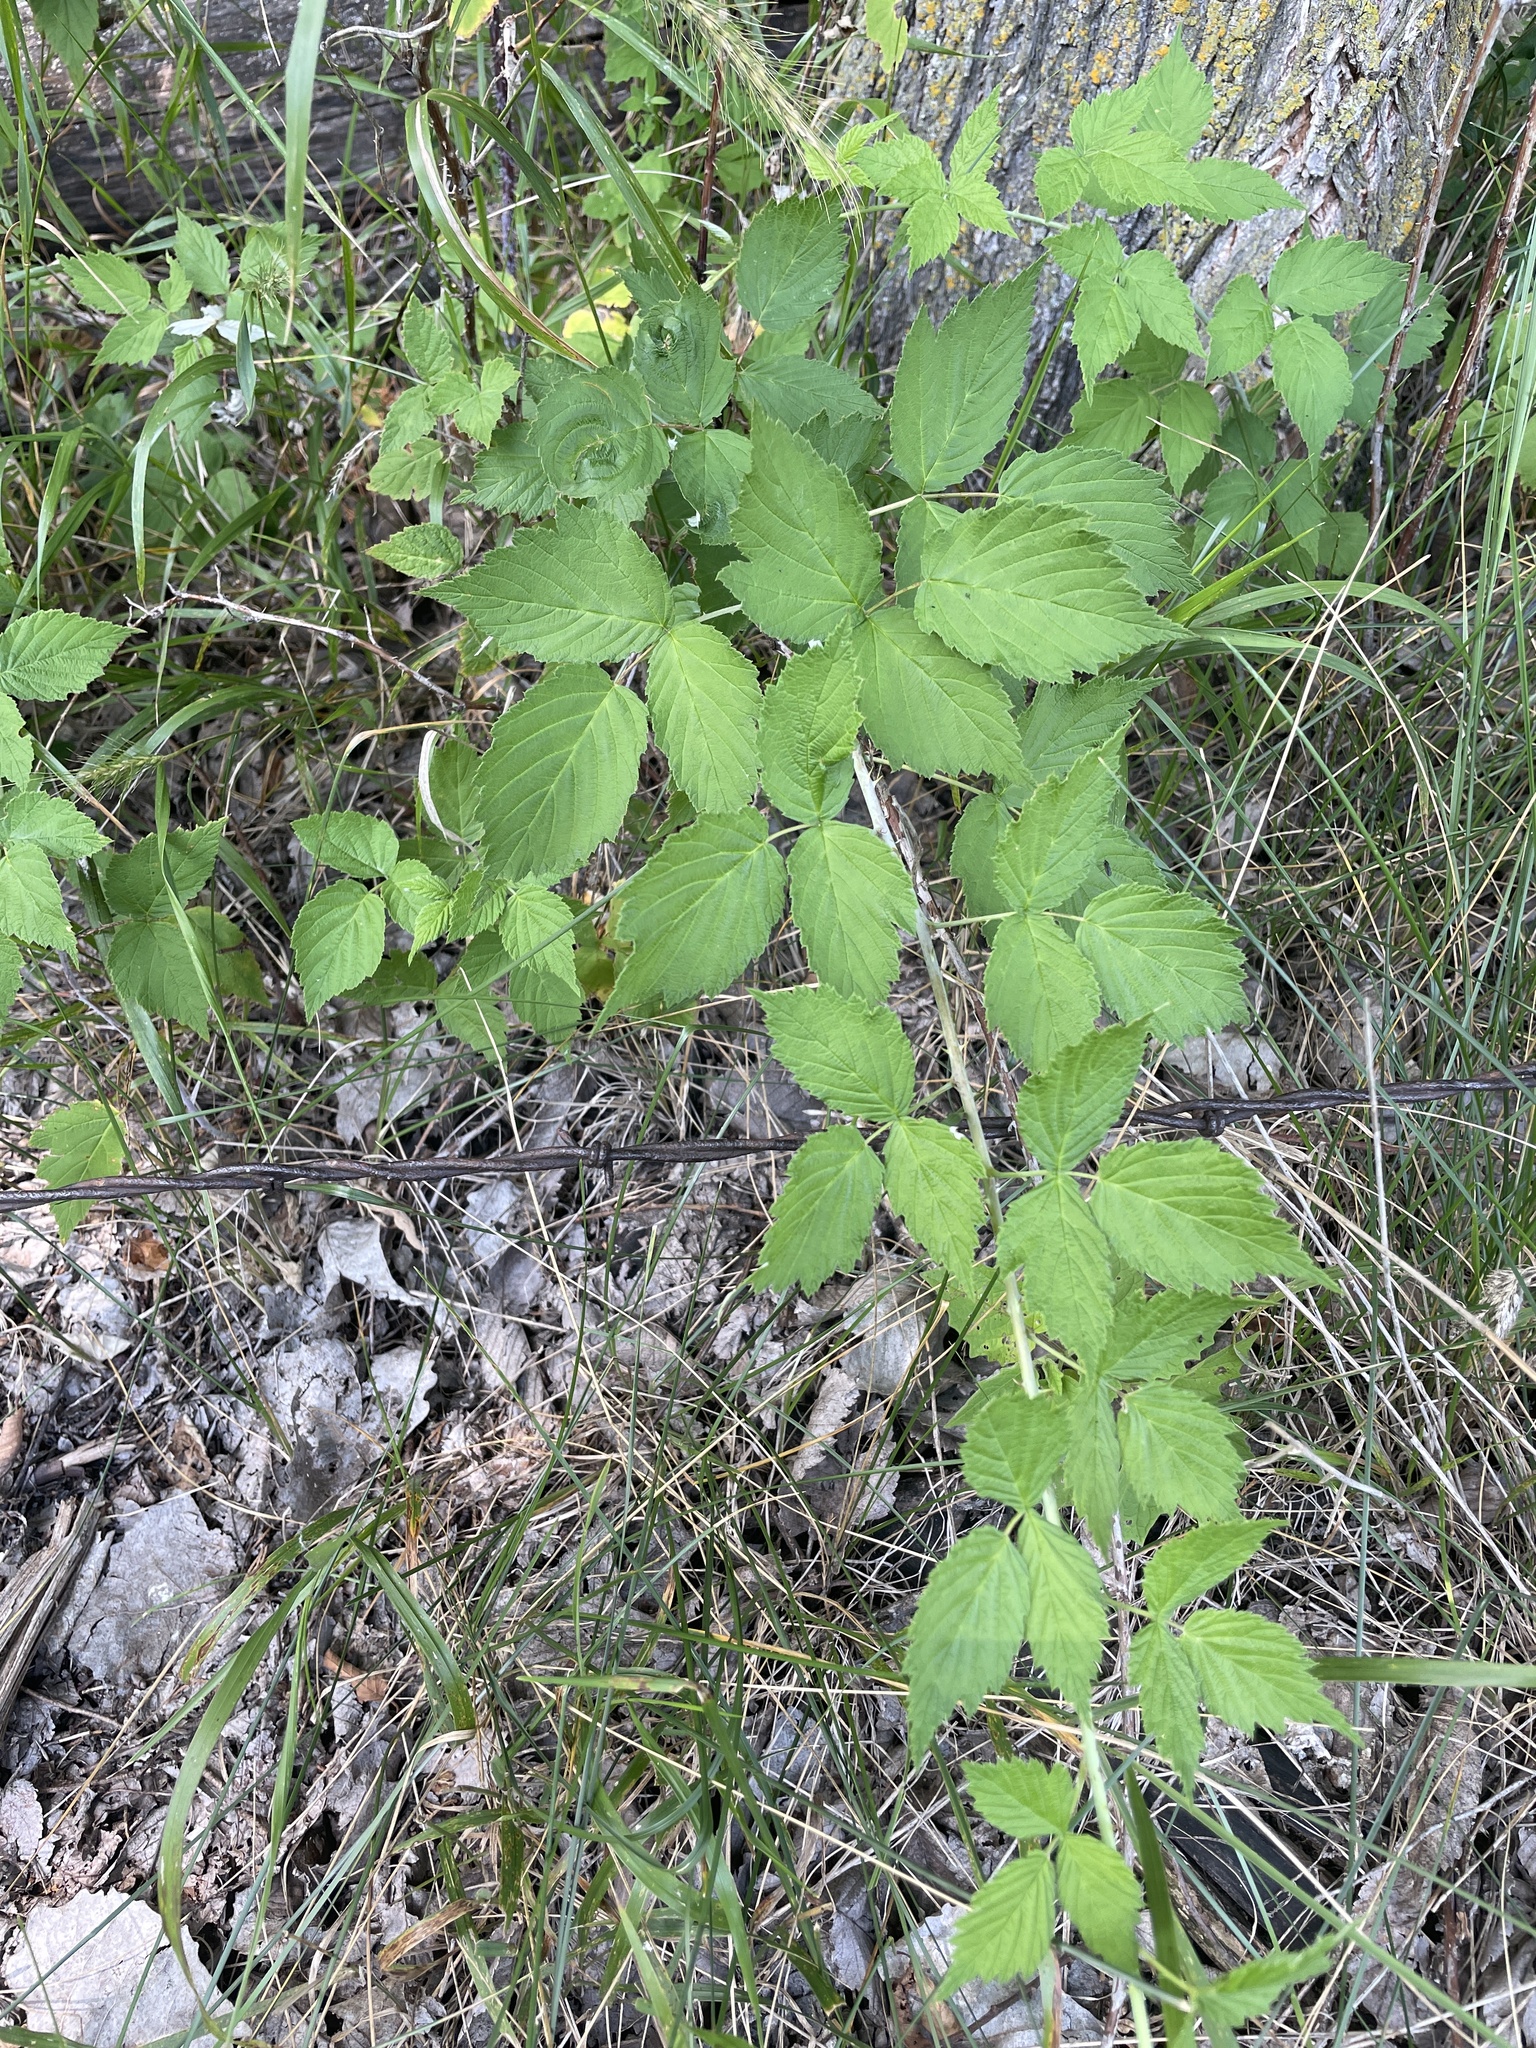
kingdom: Plantae
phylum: Tracheophyta
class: Magnoliopsida
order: Rosales
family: Rosaceae
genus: Rubus
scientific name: Rubus occidentalis
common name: Black raspberry
